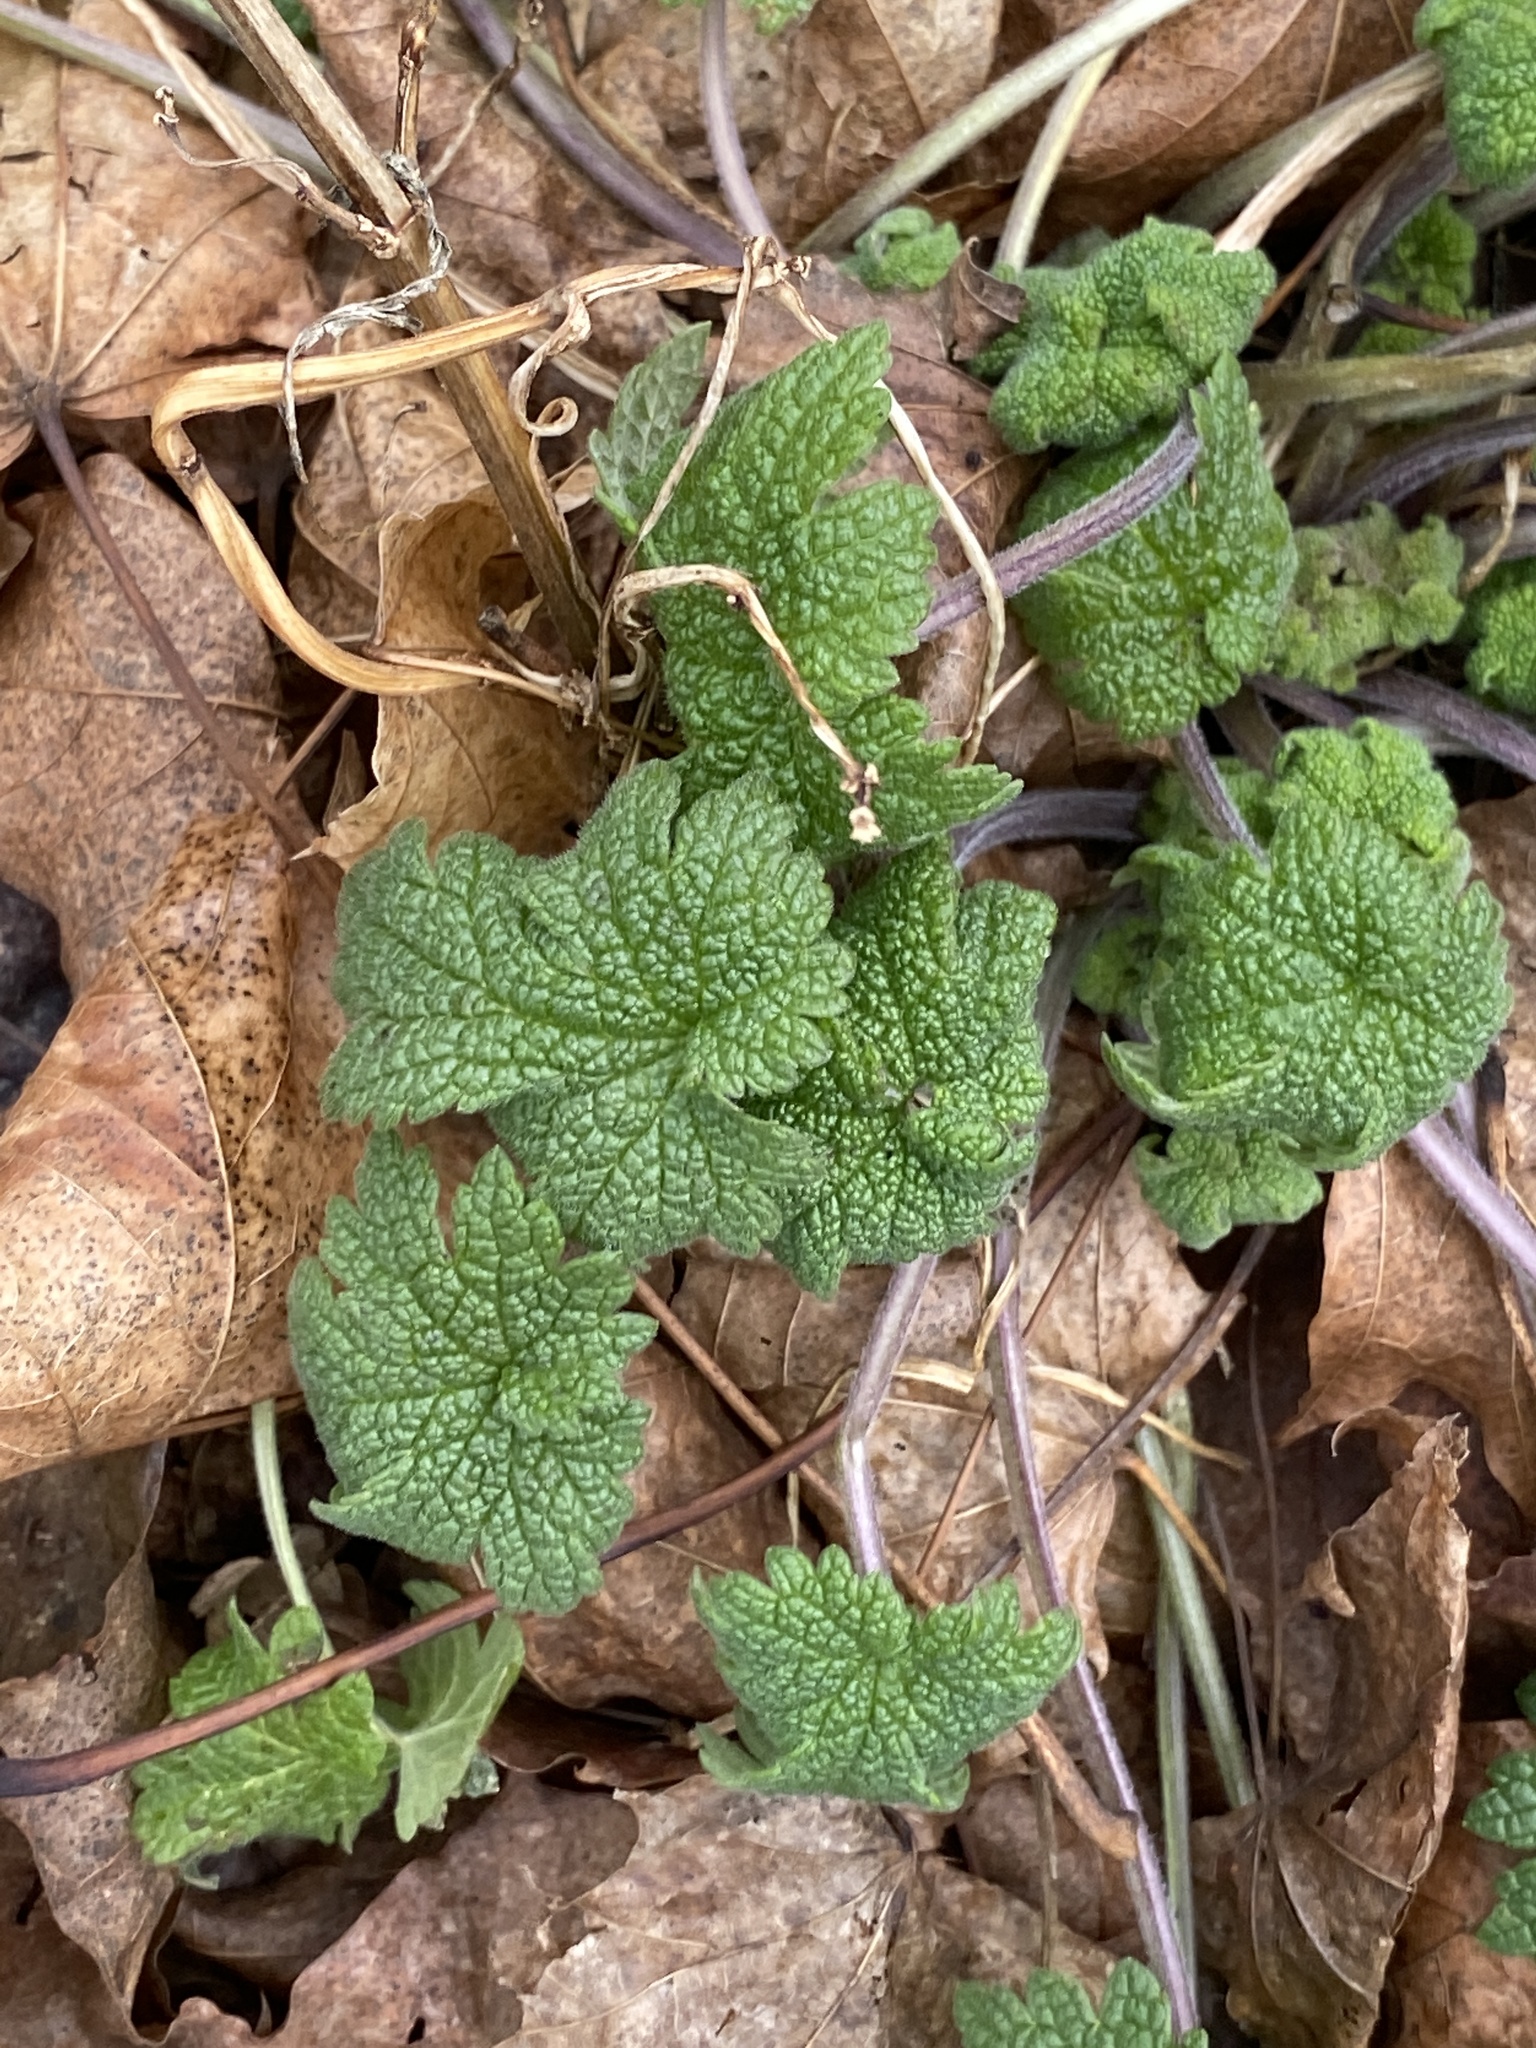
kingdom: Plantae
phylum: Tracheophyta
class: Magnoliopsida
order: Lamiales
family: Lamiaceae
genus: Leonurus
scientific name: Leonurus cardiaca
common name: Motherwort
